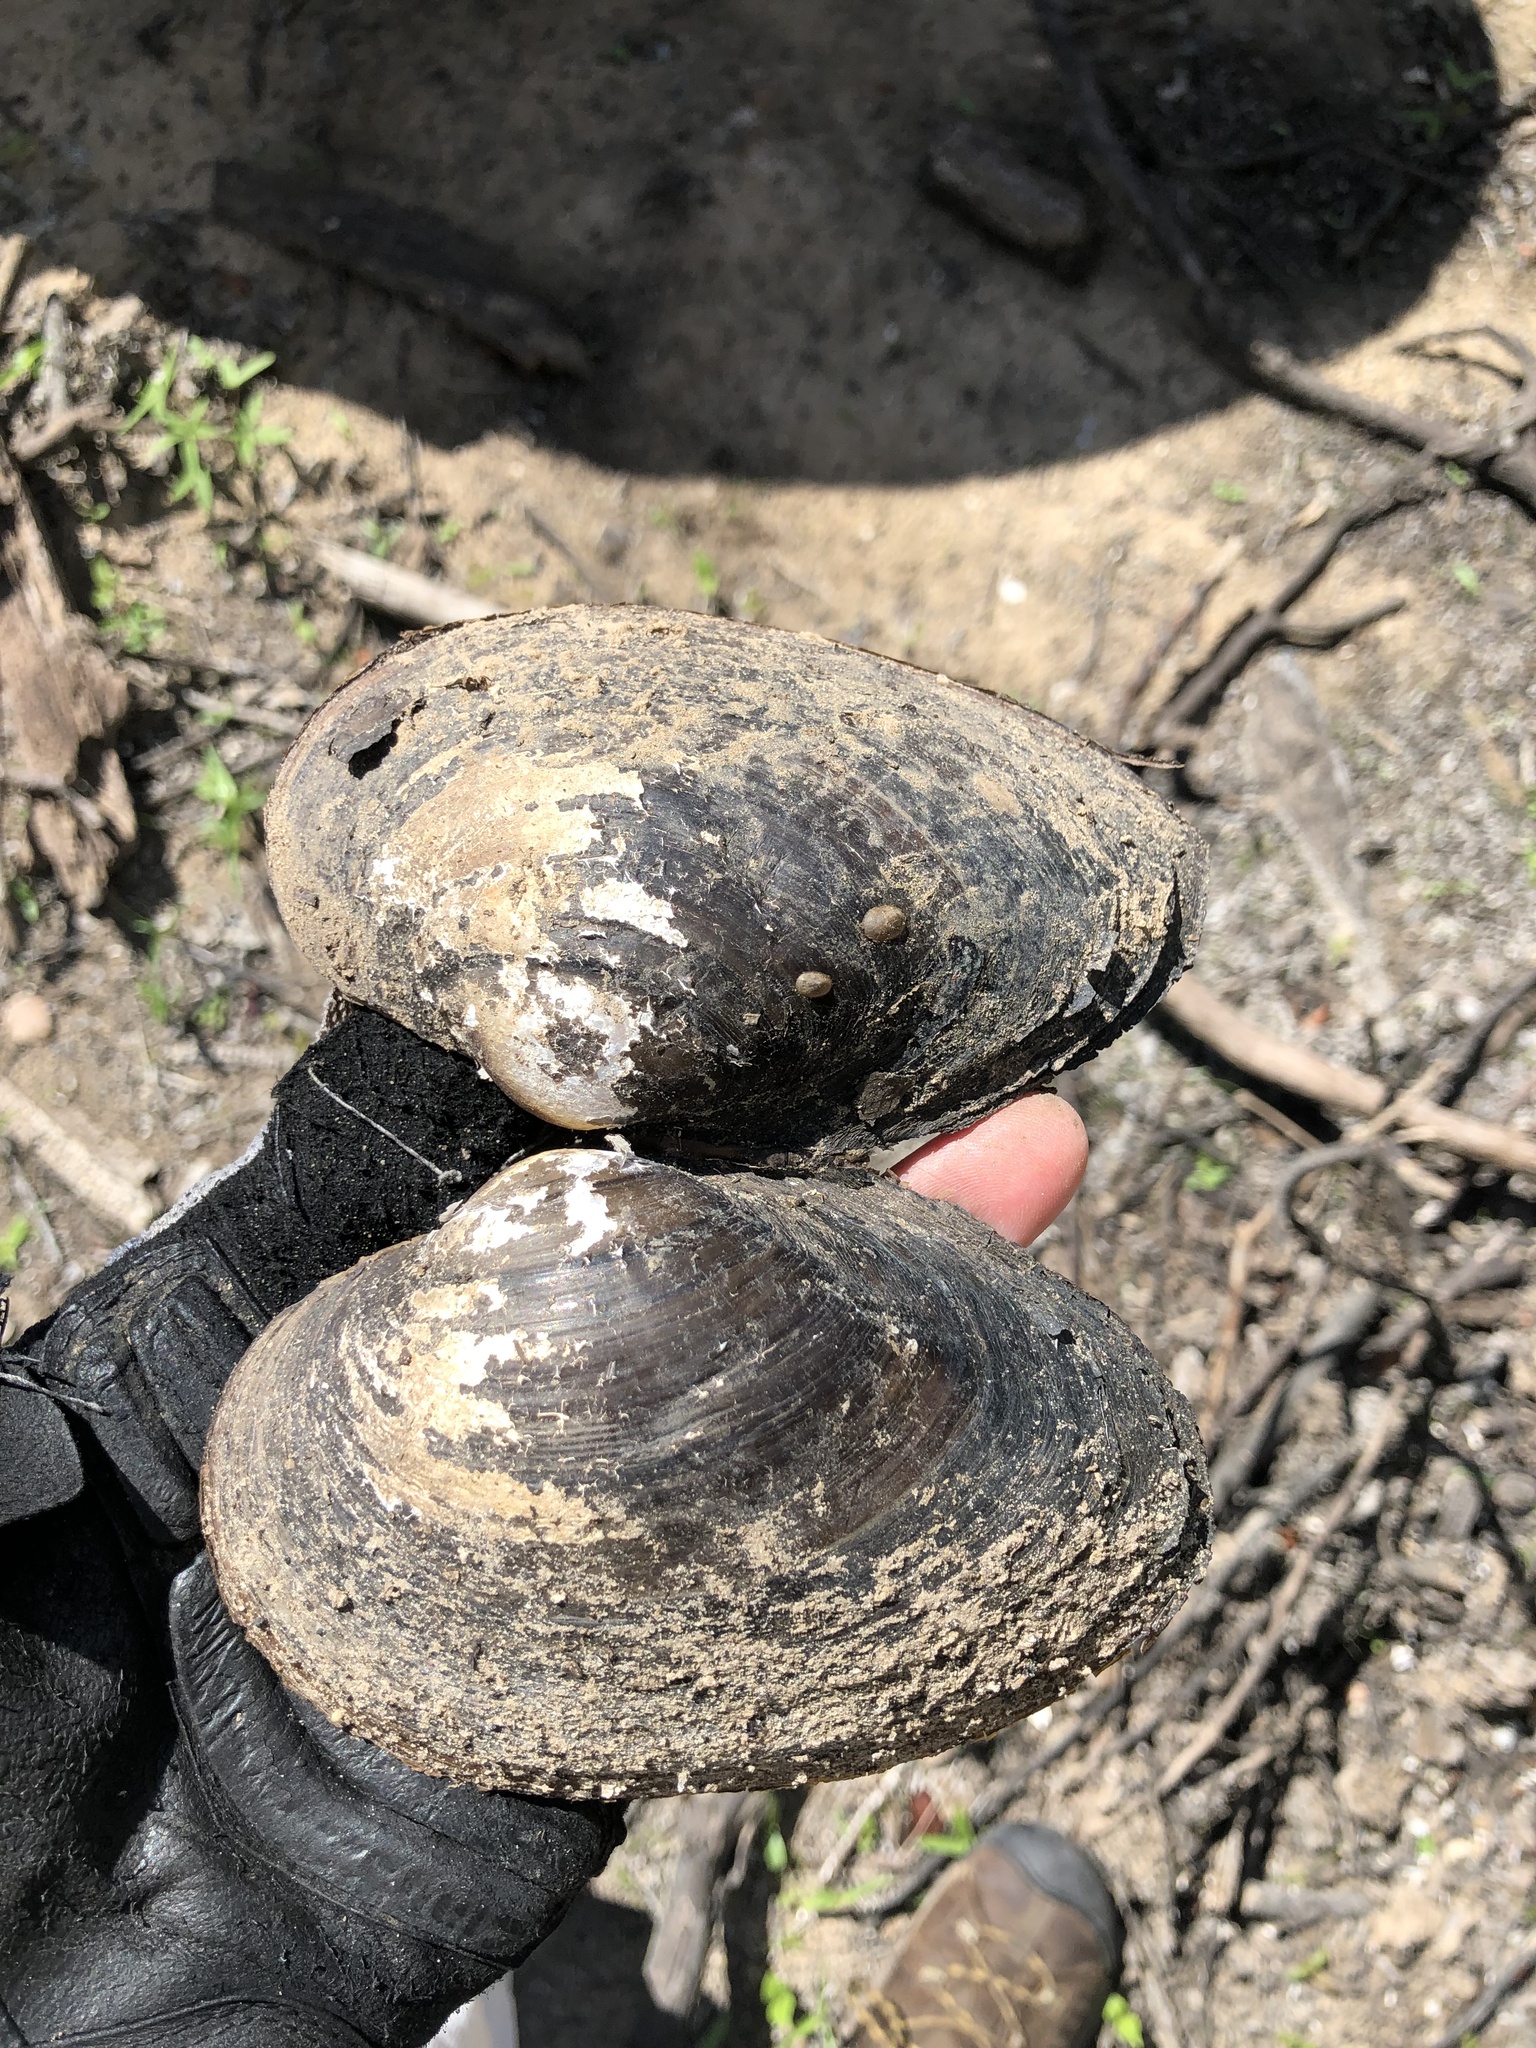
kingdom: Animalia
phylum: Mollusca
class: Bivalvia
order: Unionida
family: Unionidae
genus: Pyganodon
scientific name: Pyganodon grandis
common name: Giant floater
